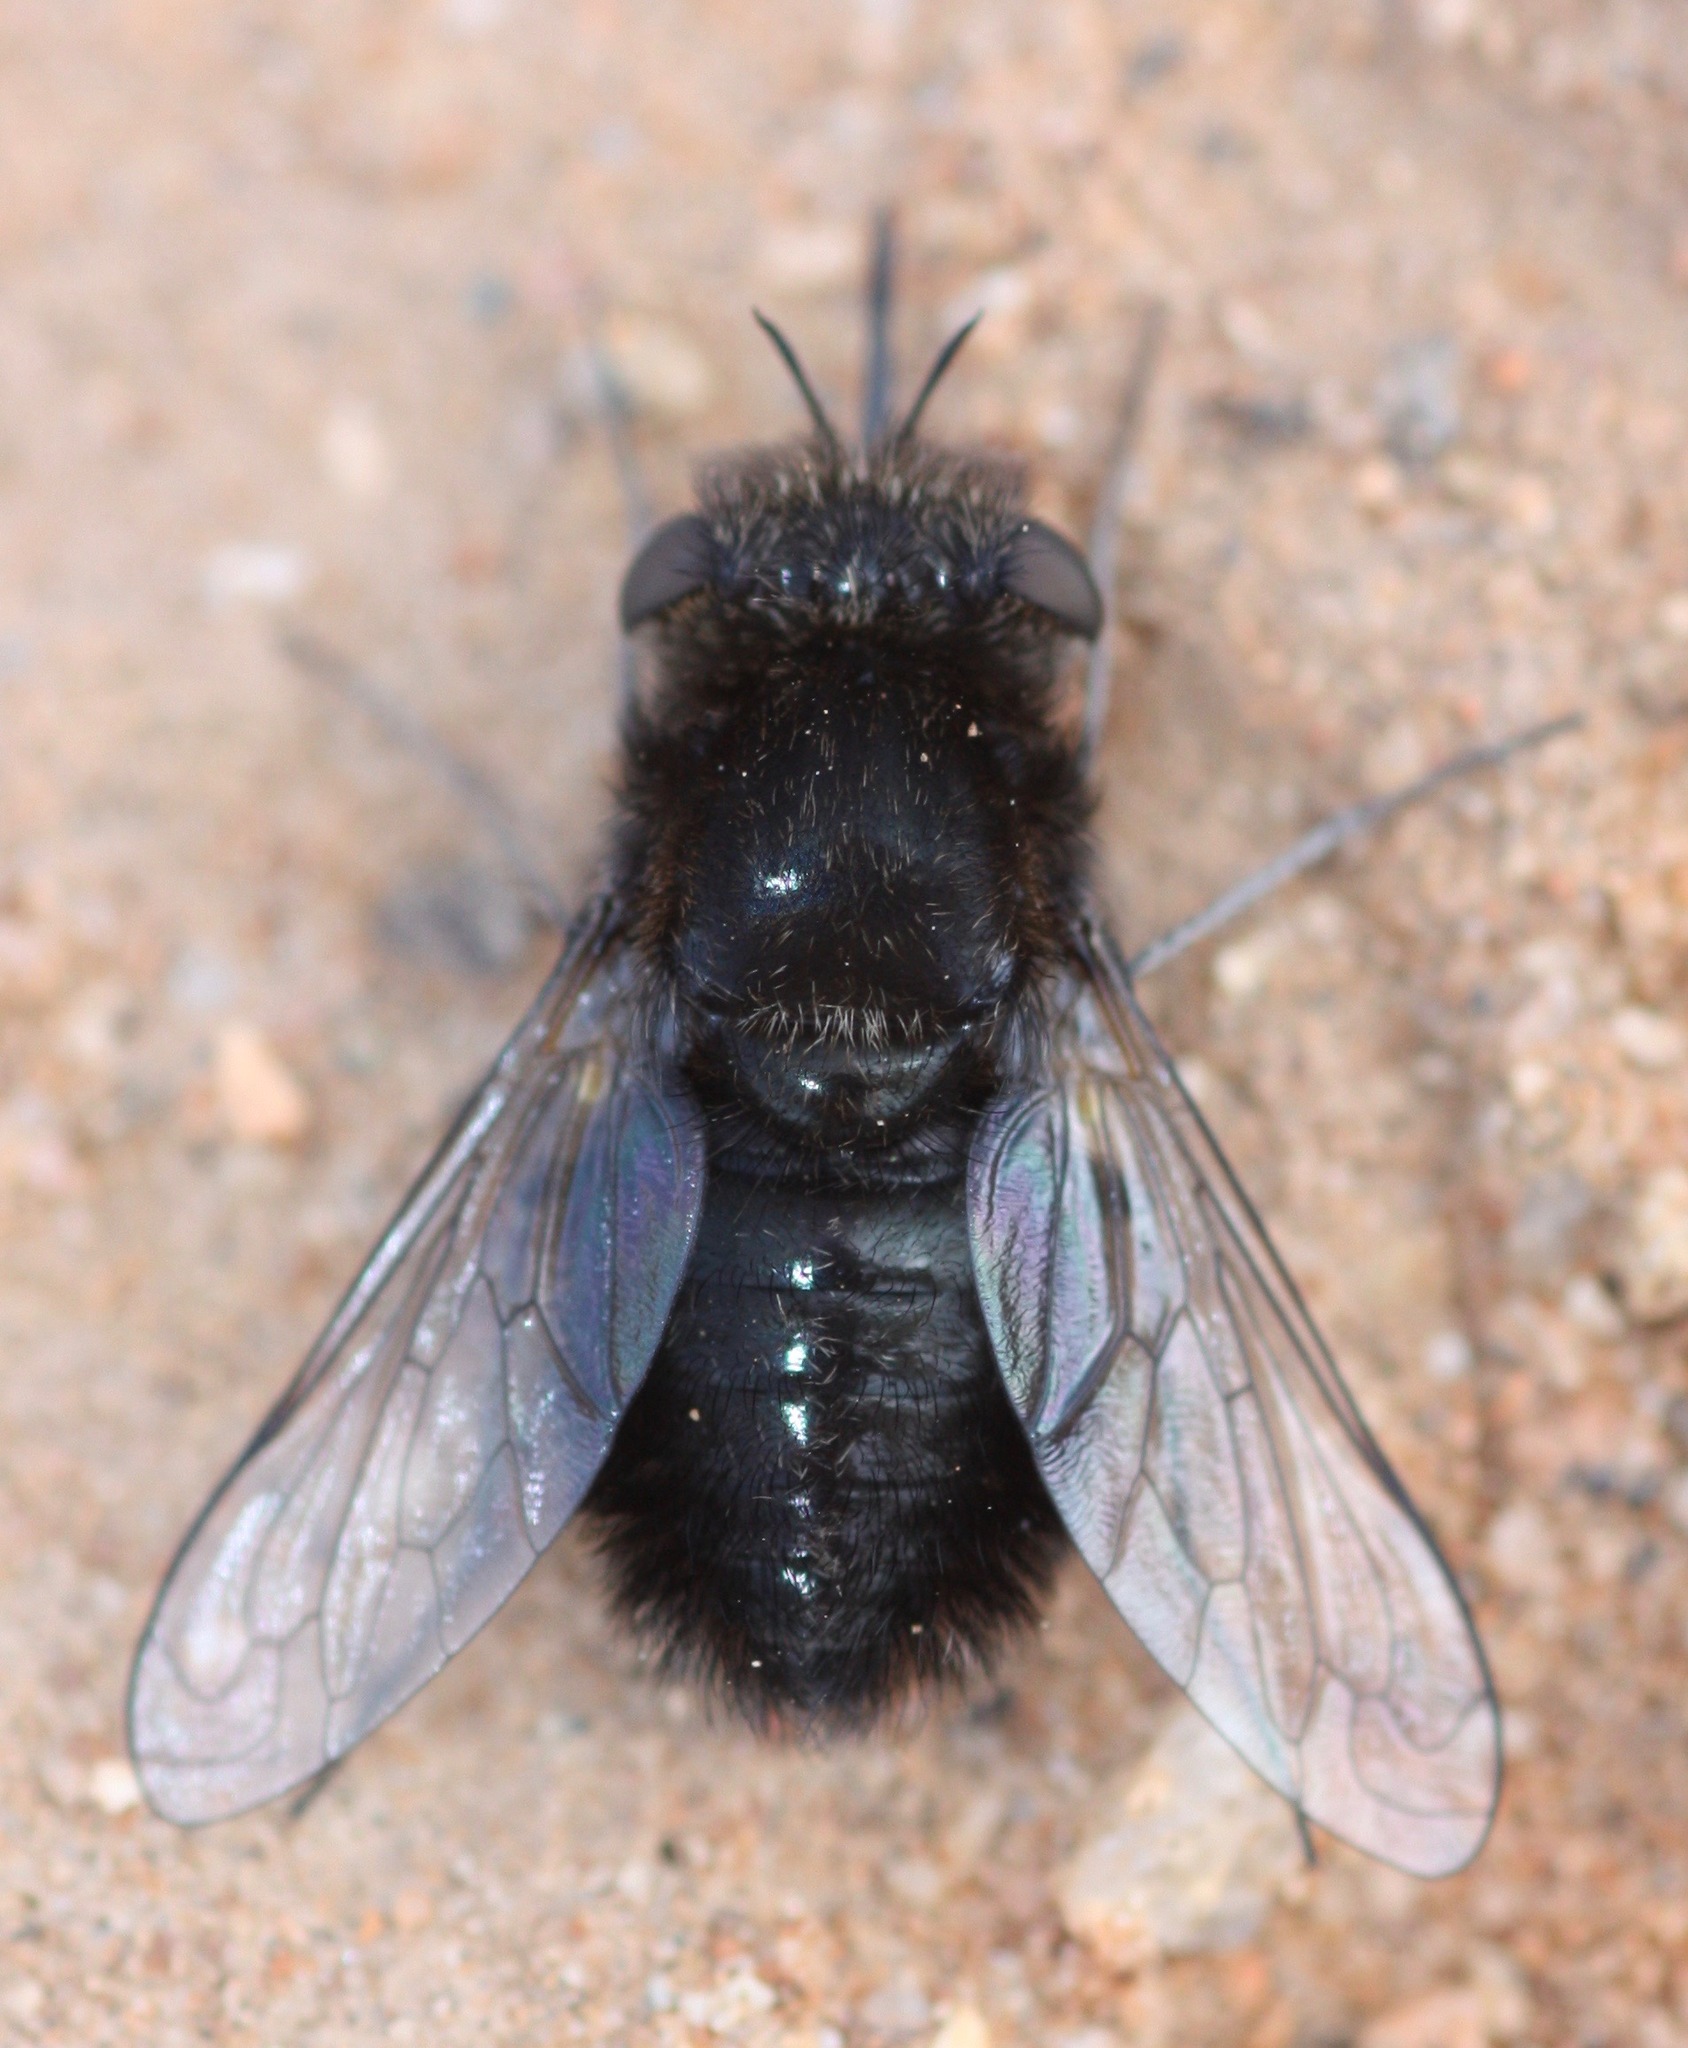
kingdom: Animalia
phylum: Arthropoda
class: Insecta
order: Diptera
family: Bombyliidae
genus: Pantarbes
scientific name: Pantarbes willistoni
